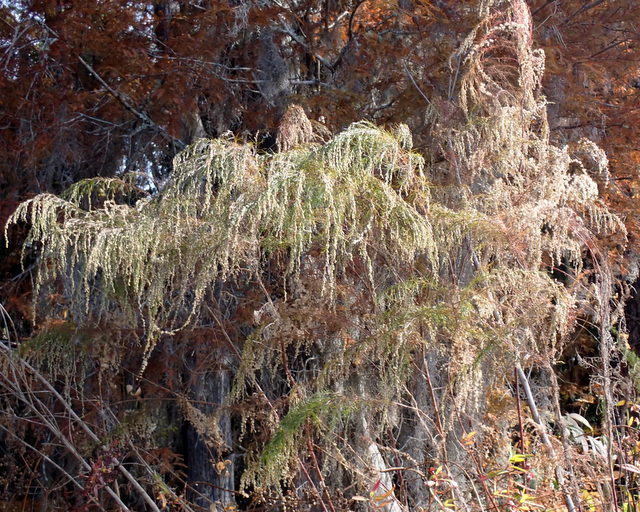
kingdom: Plantae
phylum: Tracheophyta
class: Magnoliopsida
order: Asterales
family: Asteraceae
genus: Eupatorium
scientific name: Eupatorium capillifolium
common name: Dog-fennel
